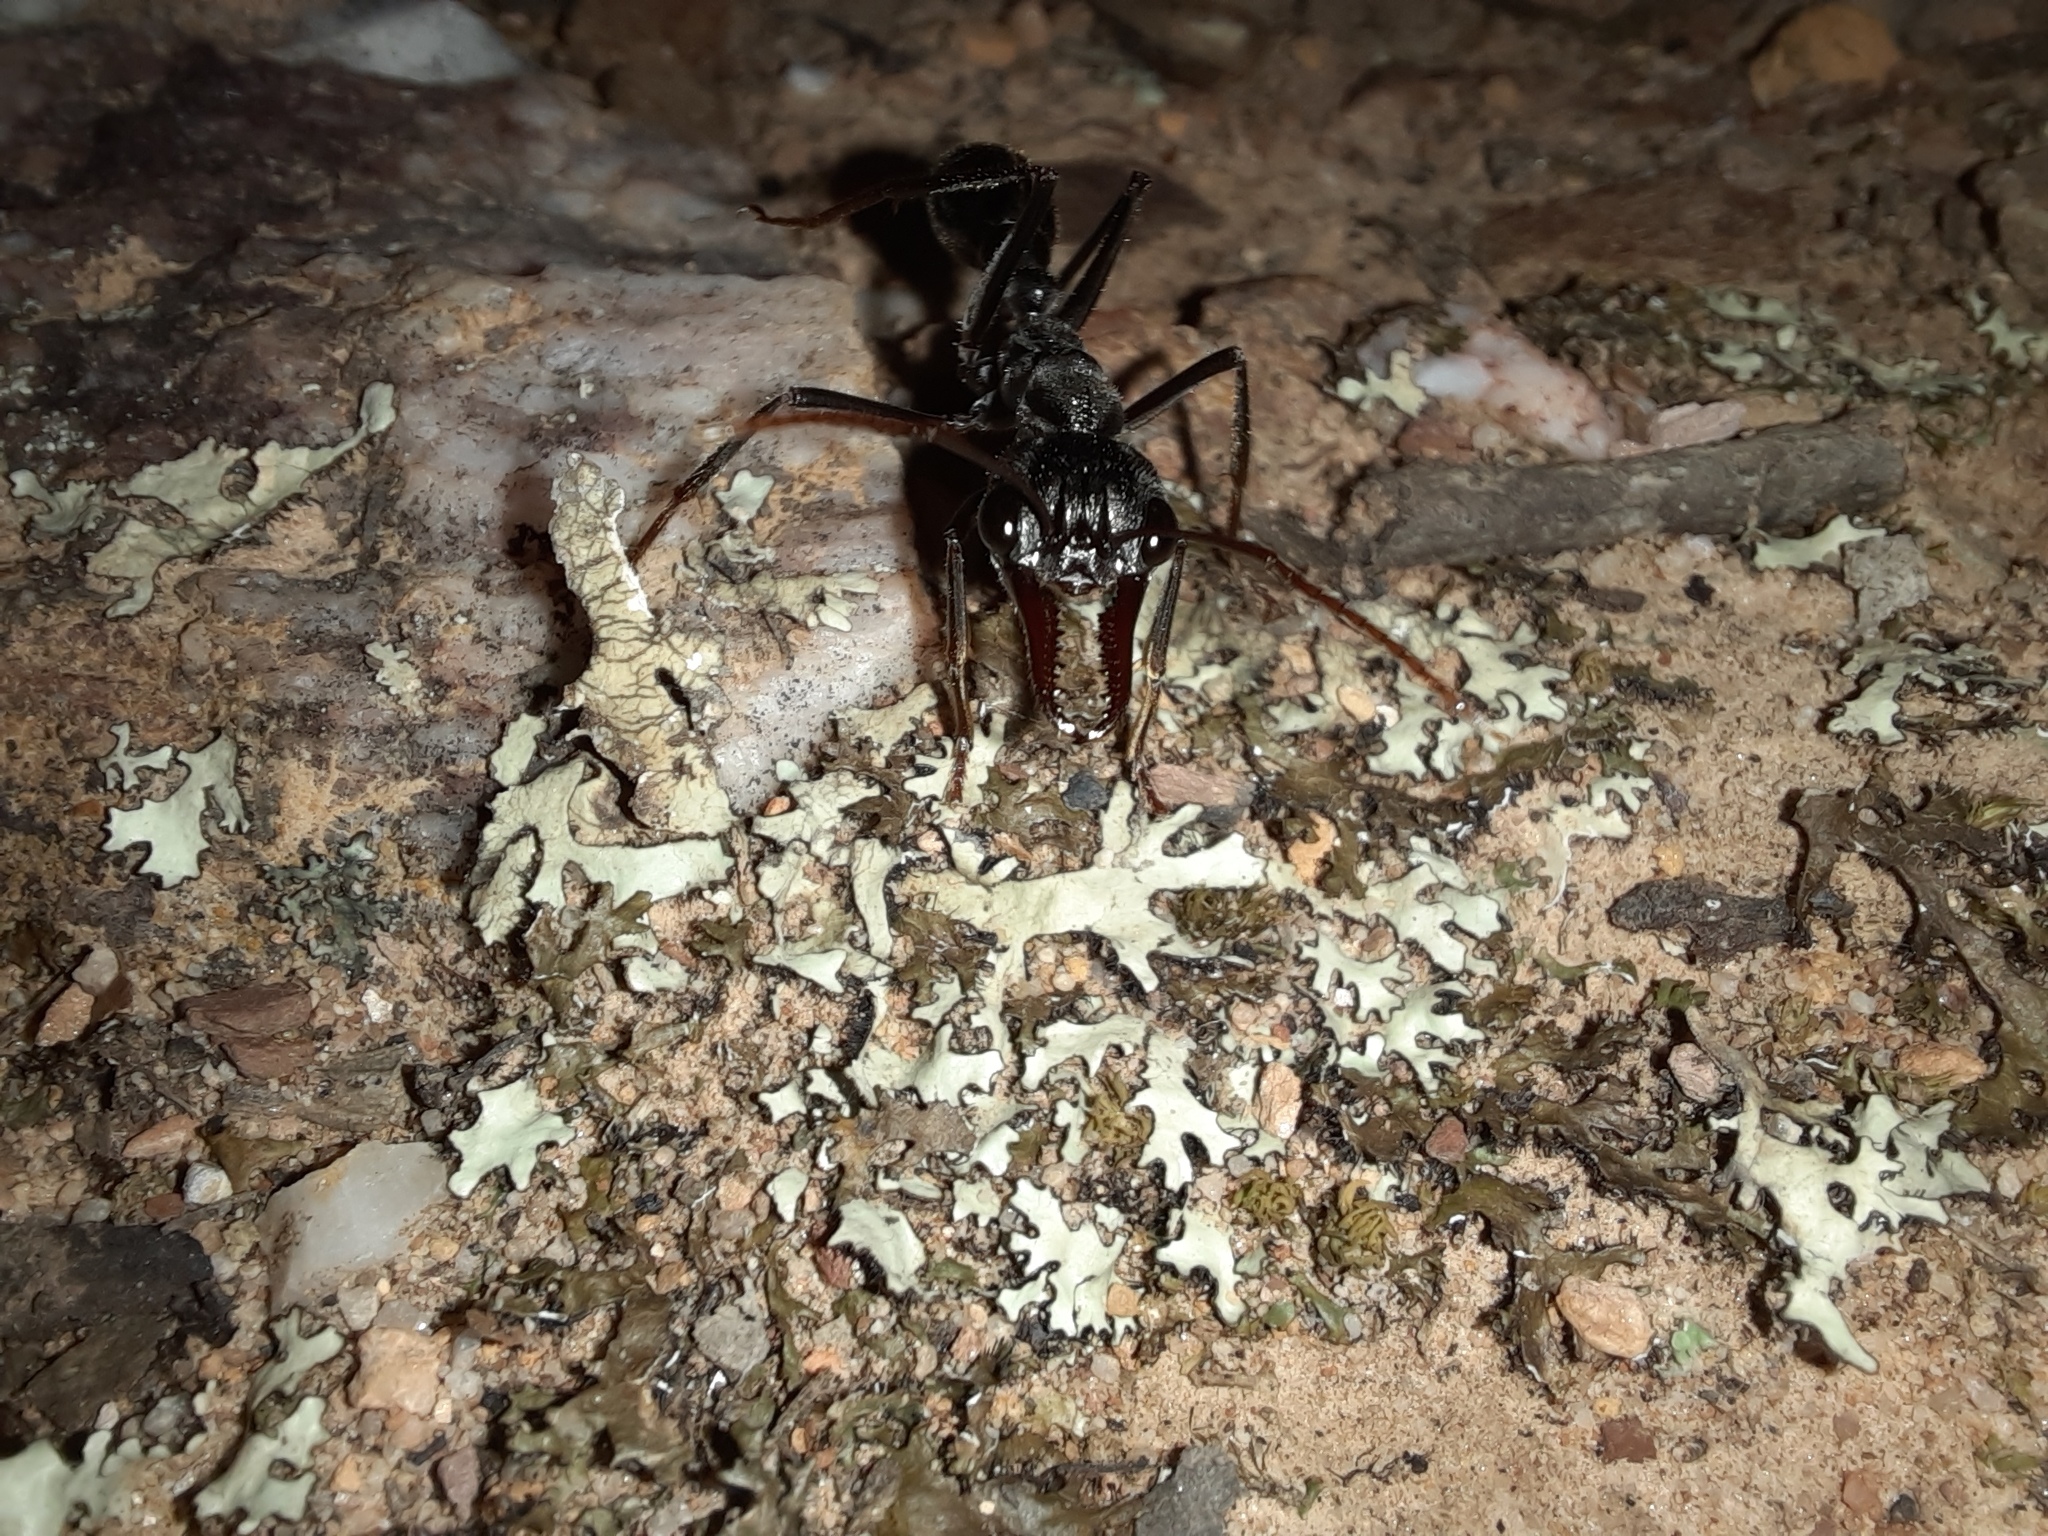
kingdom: Animalia
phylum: Arthropoda
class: Insecta
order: Hymenoptera
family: Formicidae
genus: Myrmecia
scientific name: Myrmecia pyriformis
